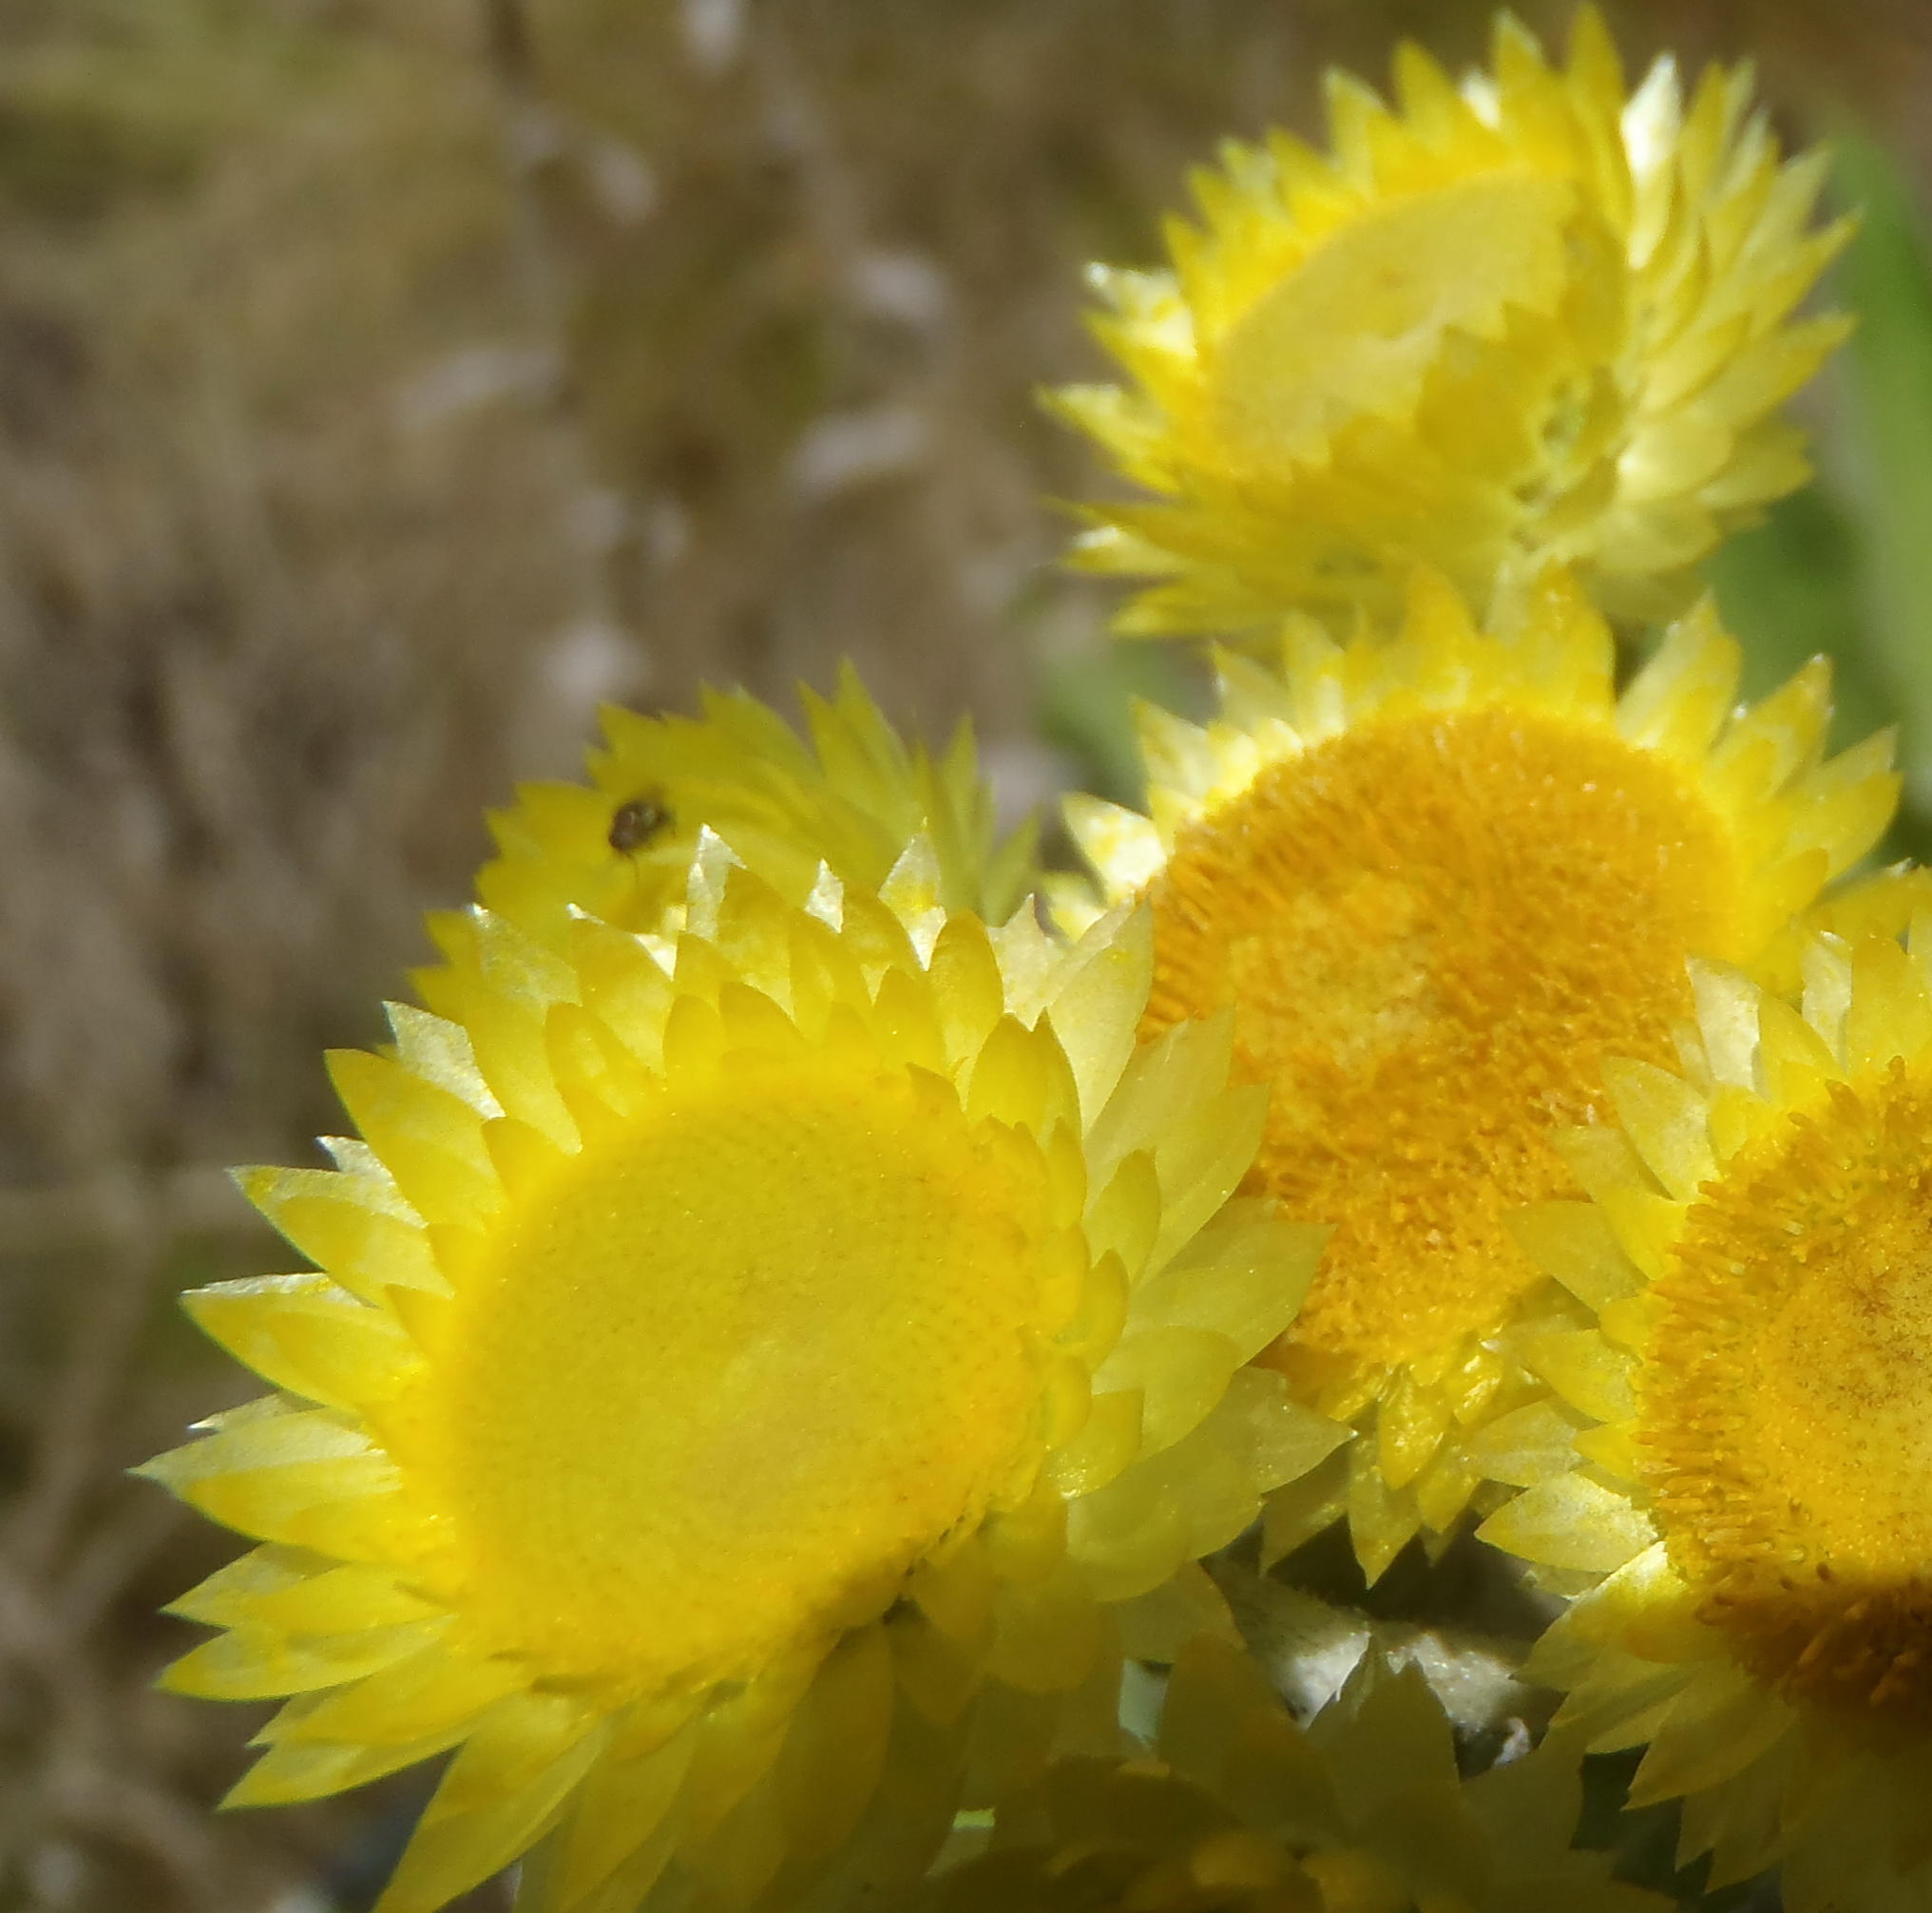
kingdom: Plantae
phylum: Tracheophyta
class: Magnoliopsida
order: Asterales
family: Asteraceae
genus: Helichrysum
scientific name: Helichrysum foetidum
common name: Stinking everlasting
